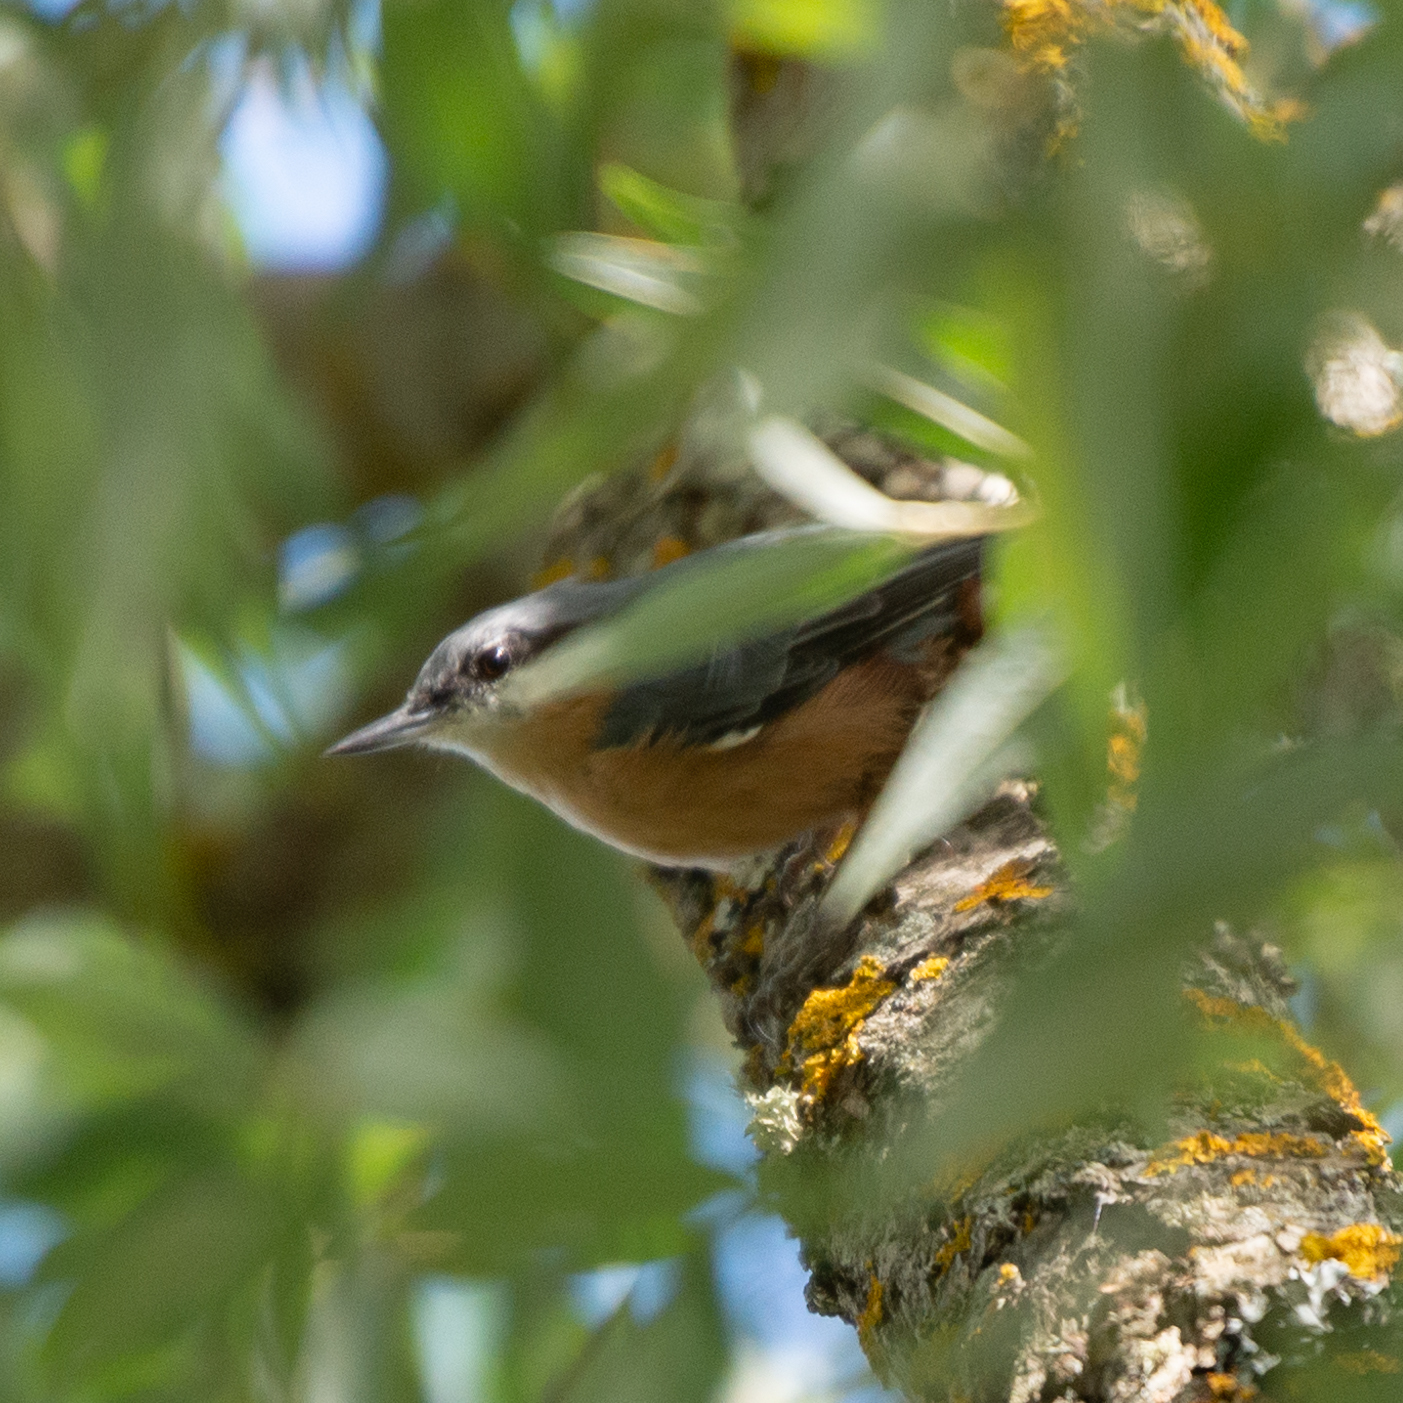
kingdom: Animalia
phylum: Chordata
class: Aves
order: Passeriformes
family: Sittidae
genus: Sitta
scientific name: Sitta europaea
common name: Eurasian nuthatch
